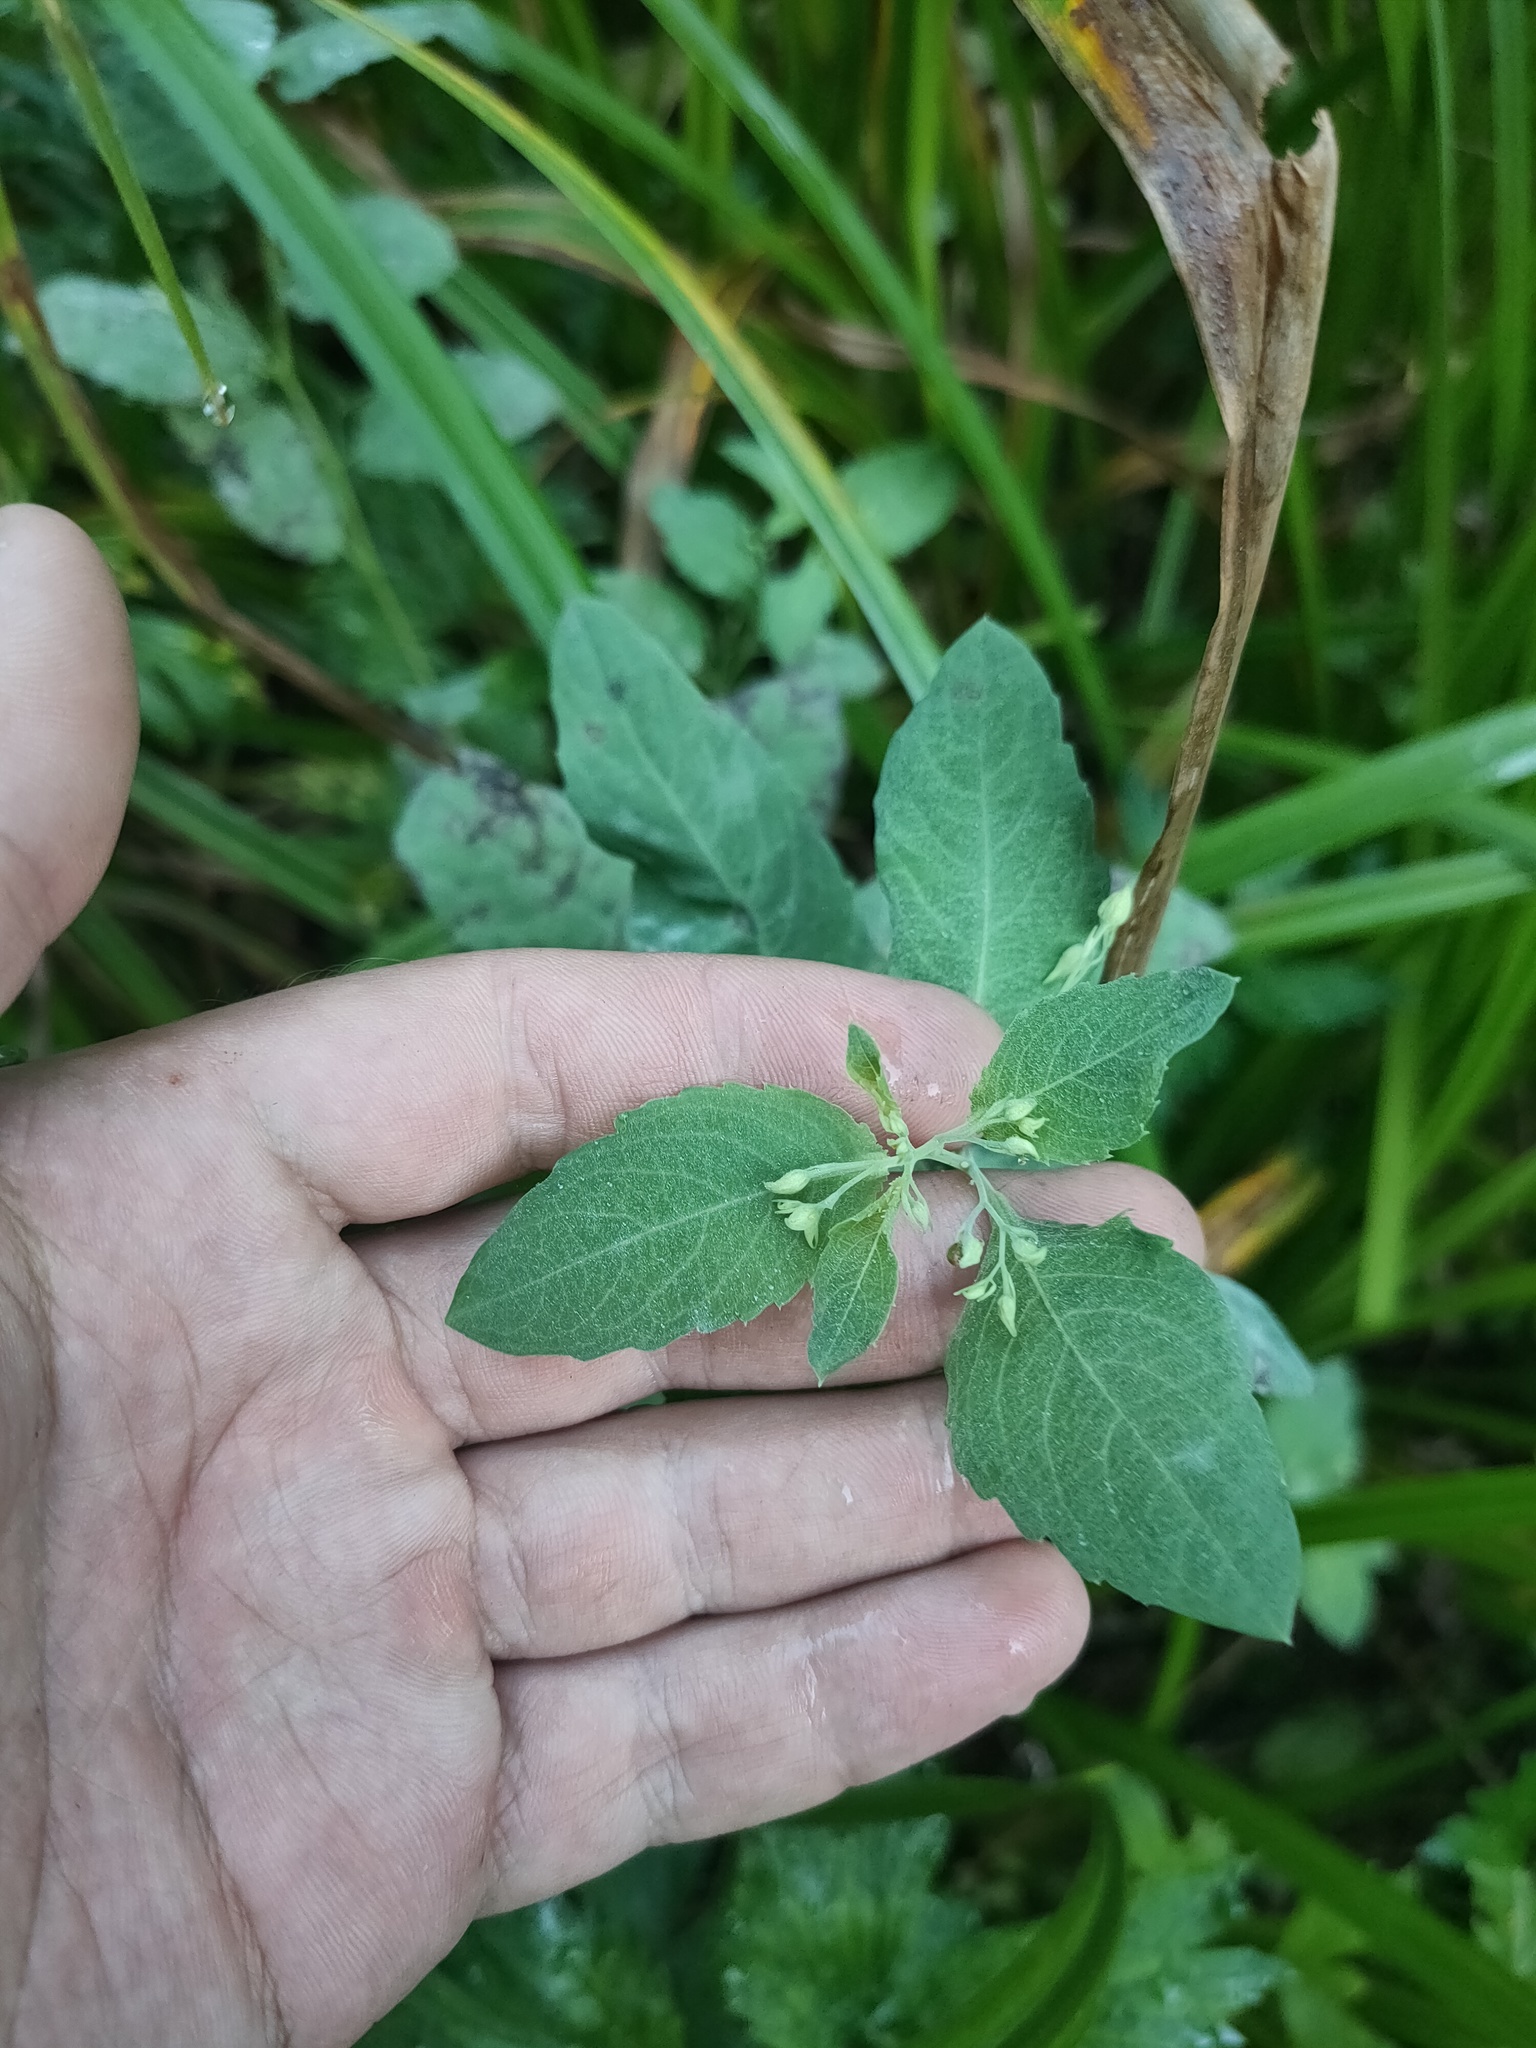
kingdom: Plantae
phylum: Tracheophyta
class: Magnoliopsida
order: Ericales
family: Balsaminaceae
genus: Impatiens
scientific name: Impatiens noli-tangere
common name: Touch-me-not balsam
